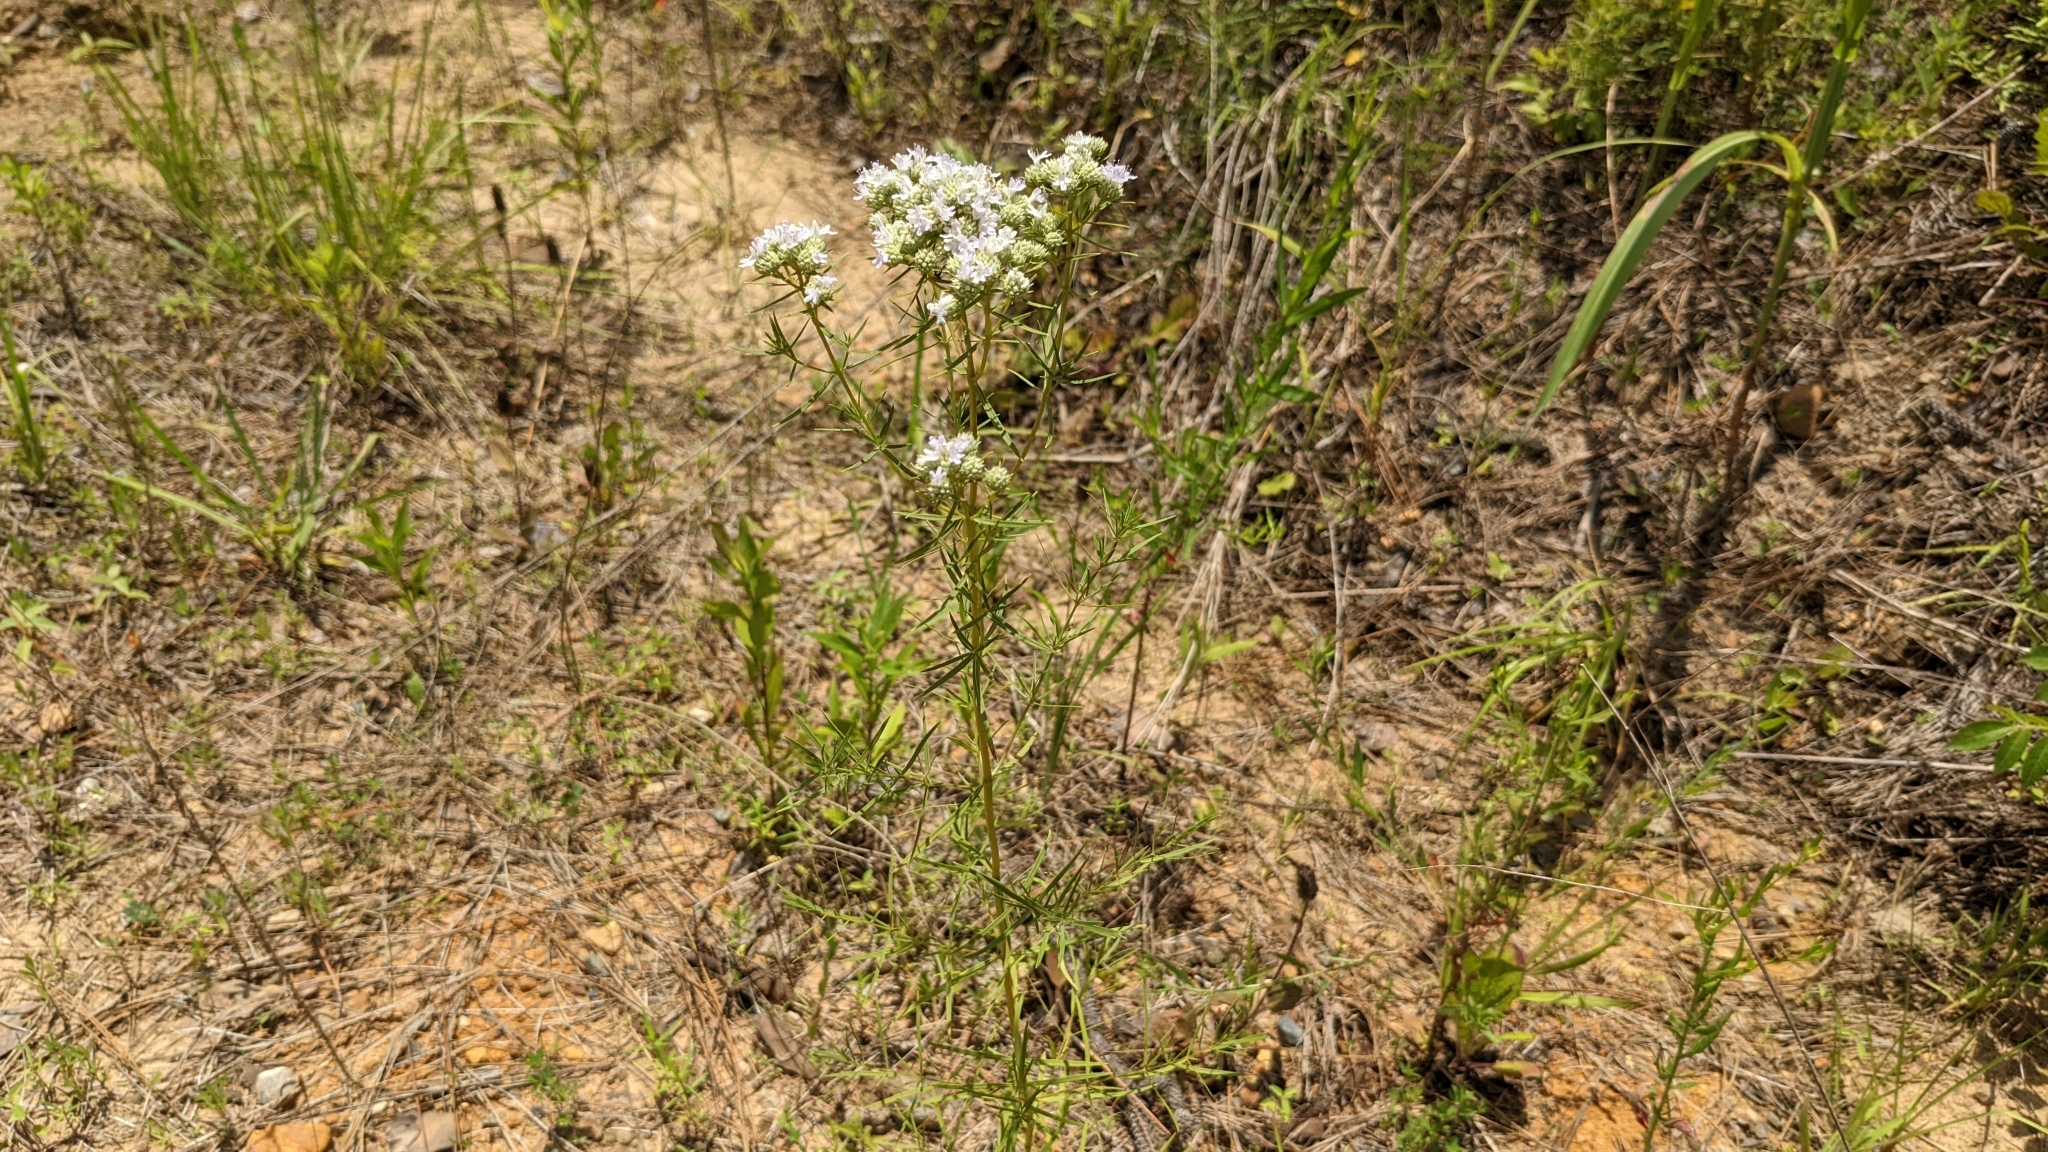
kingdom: Plantae
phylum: Tracheophyta
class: Magnoliopsida
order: Lamiales
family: Lamiaceae
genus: Pycnanthemum
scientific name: Pycnanthemum tenuifolium
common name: Narrow-leaf mountain-mint
